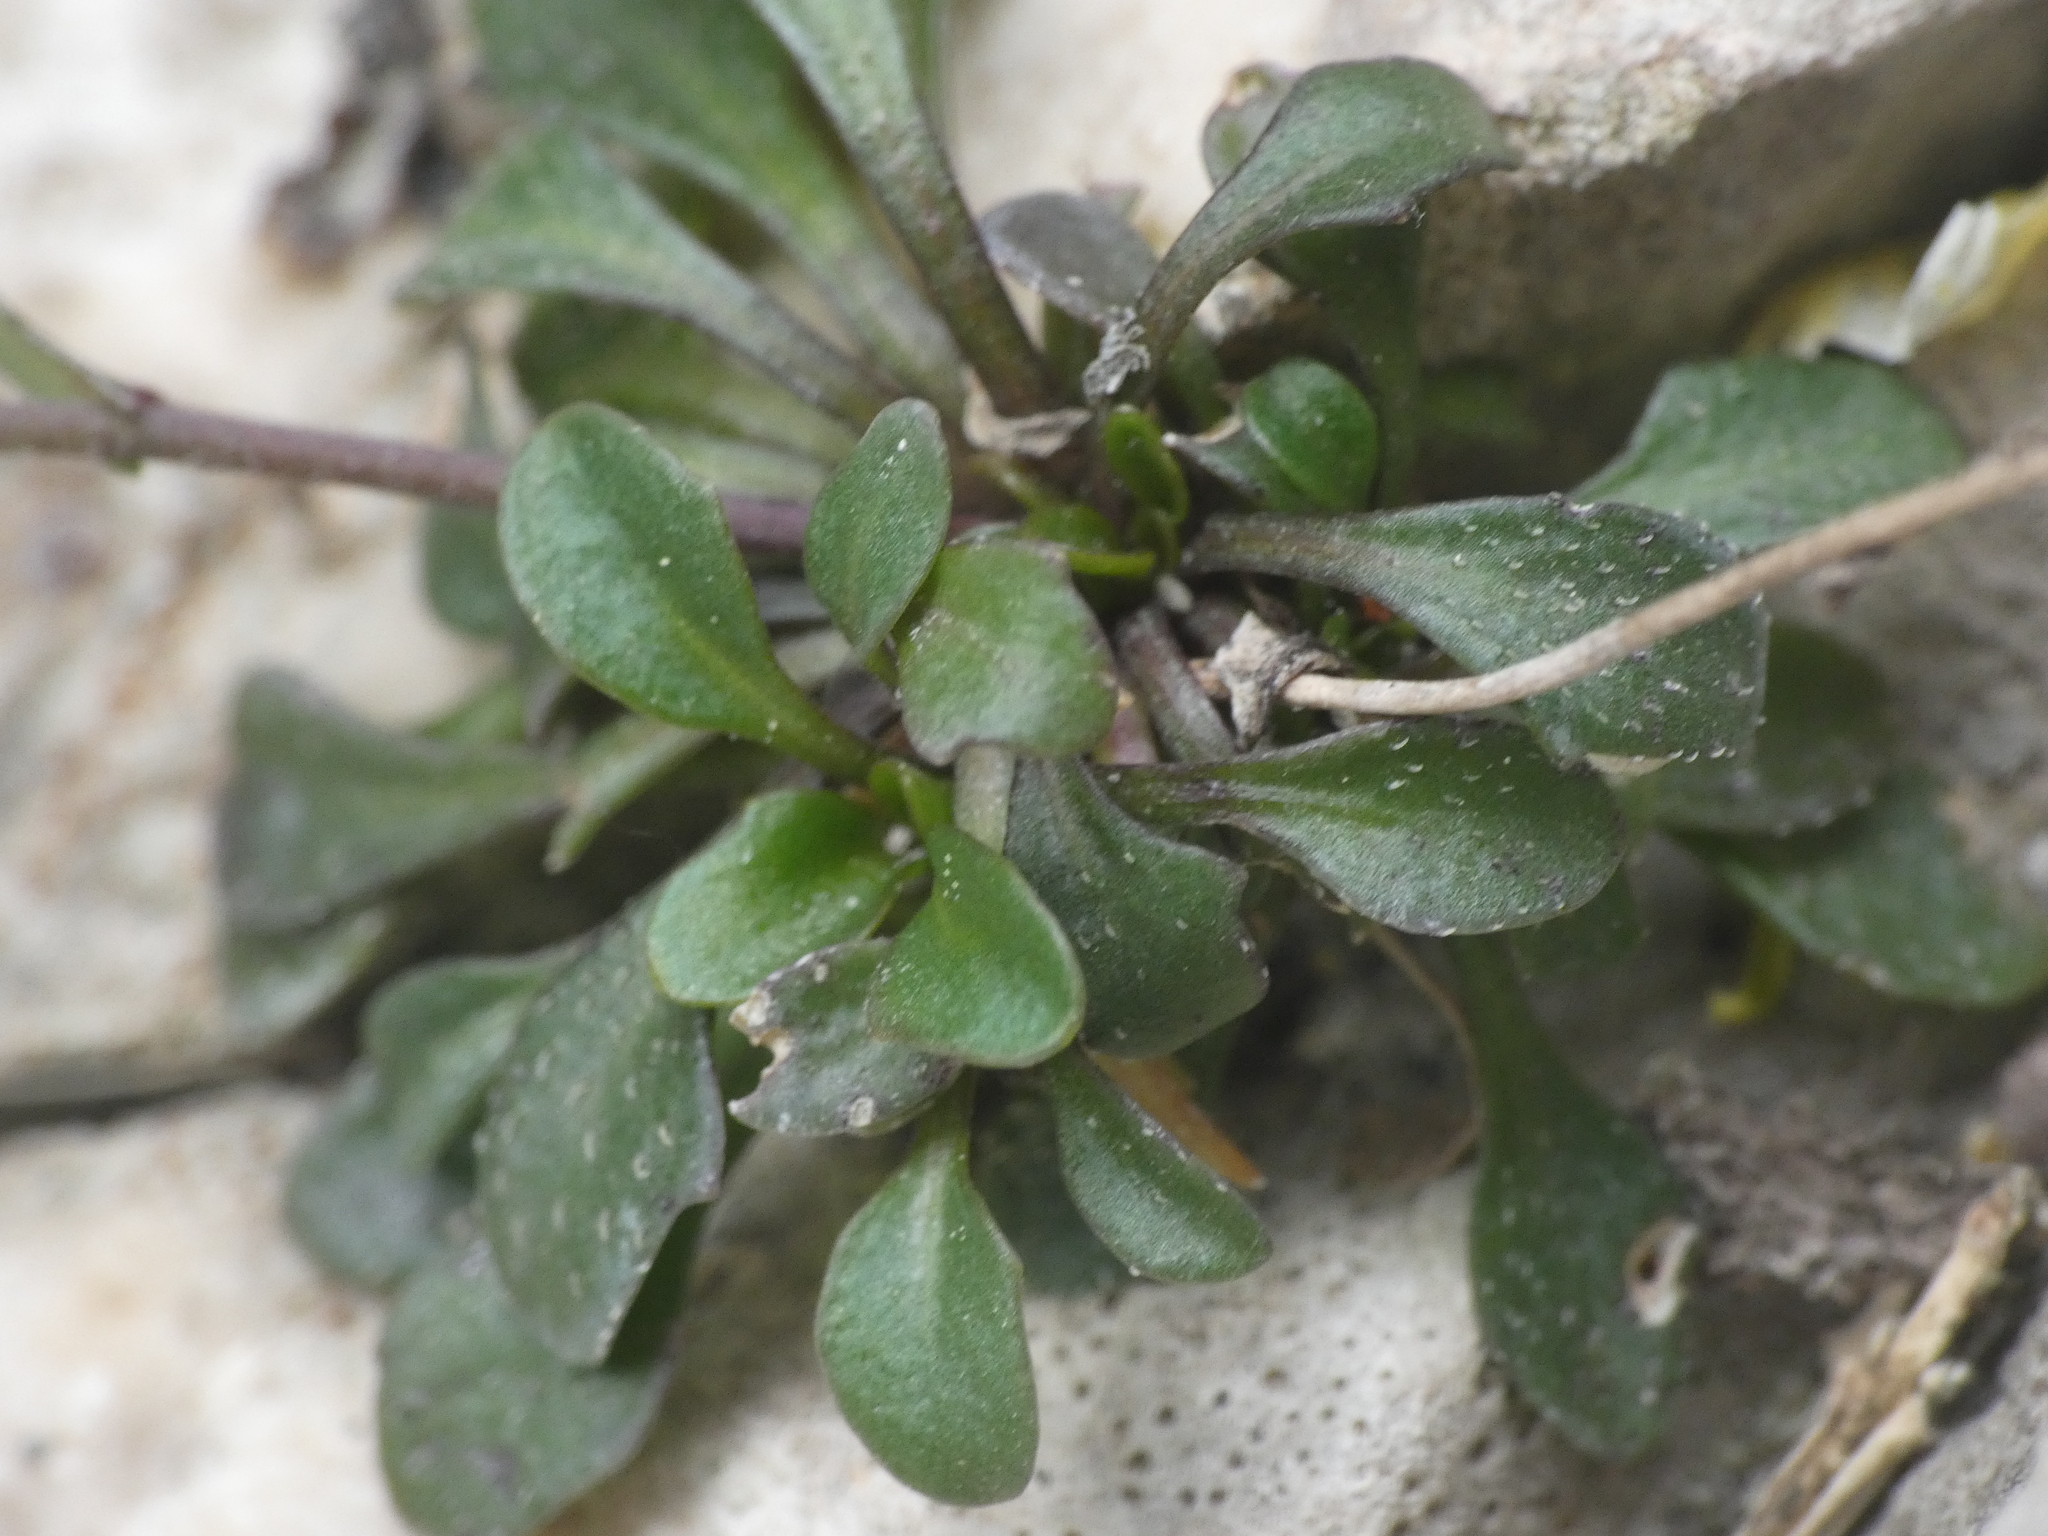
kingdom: Plantae
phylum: Tracheophyta
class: Magnoliopsida
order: Brassicales
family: Brassicaceae
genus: Kernera
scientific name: Kernera saxatilis
